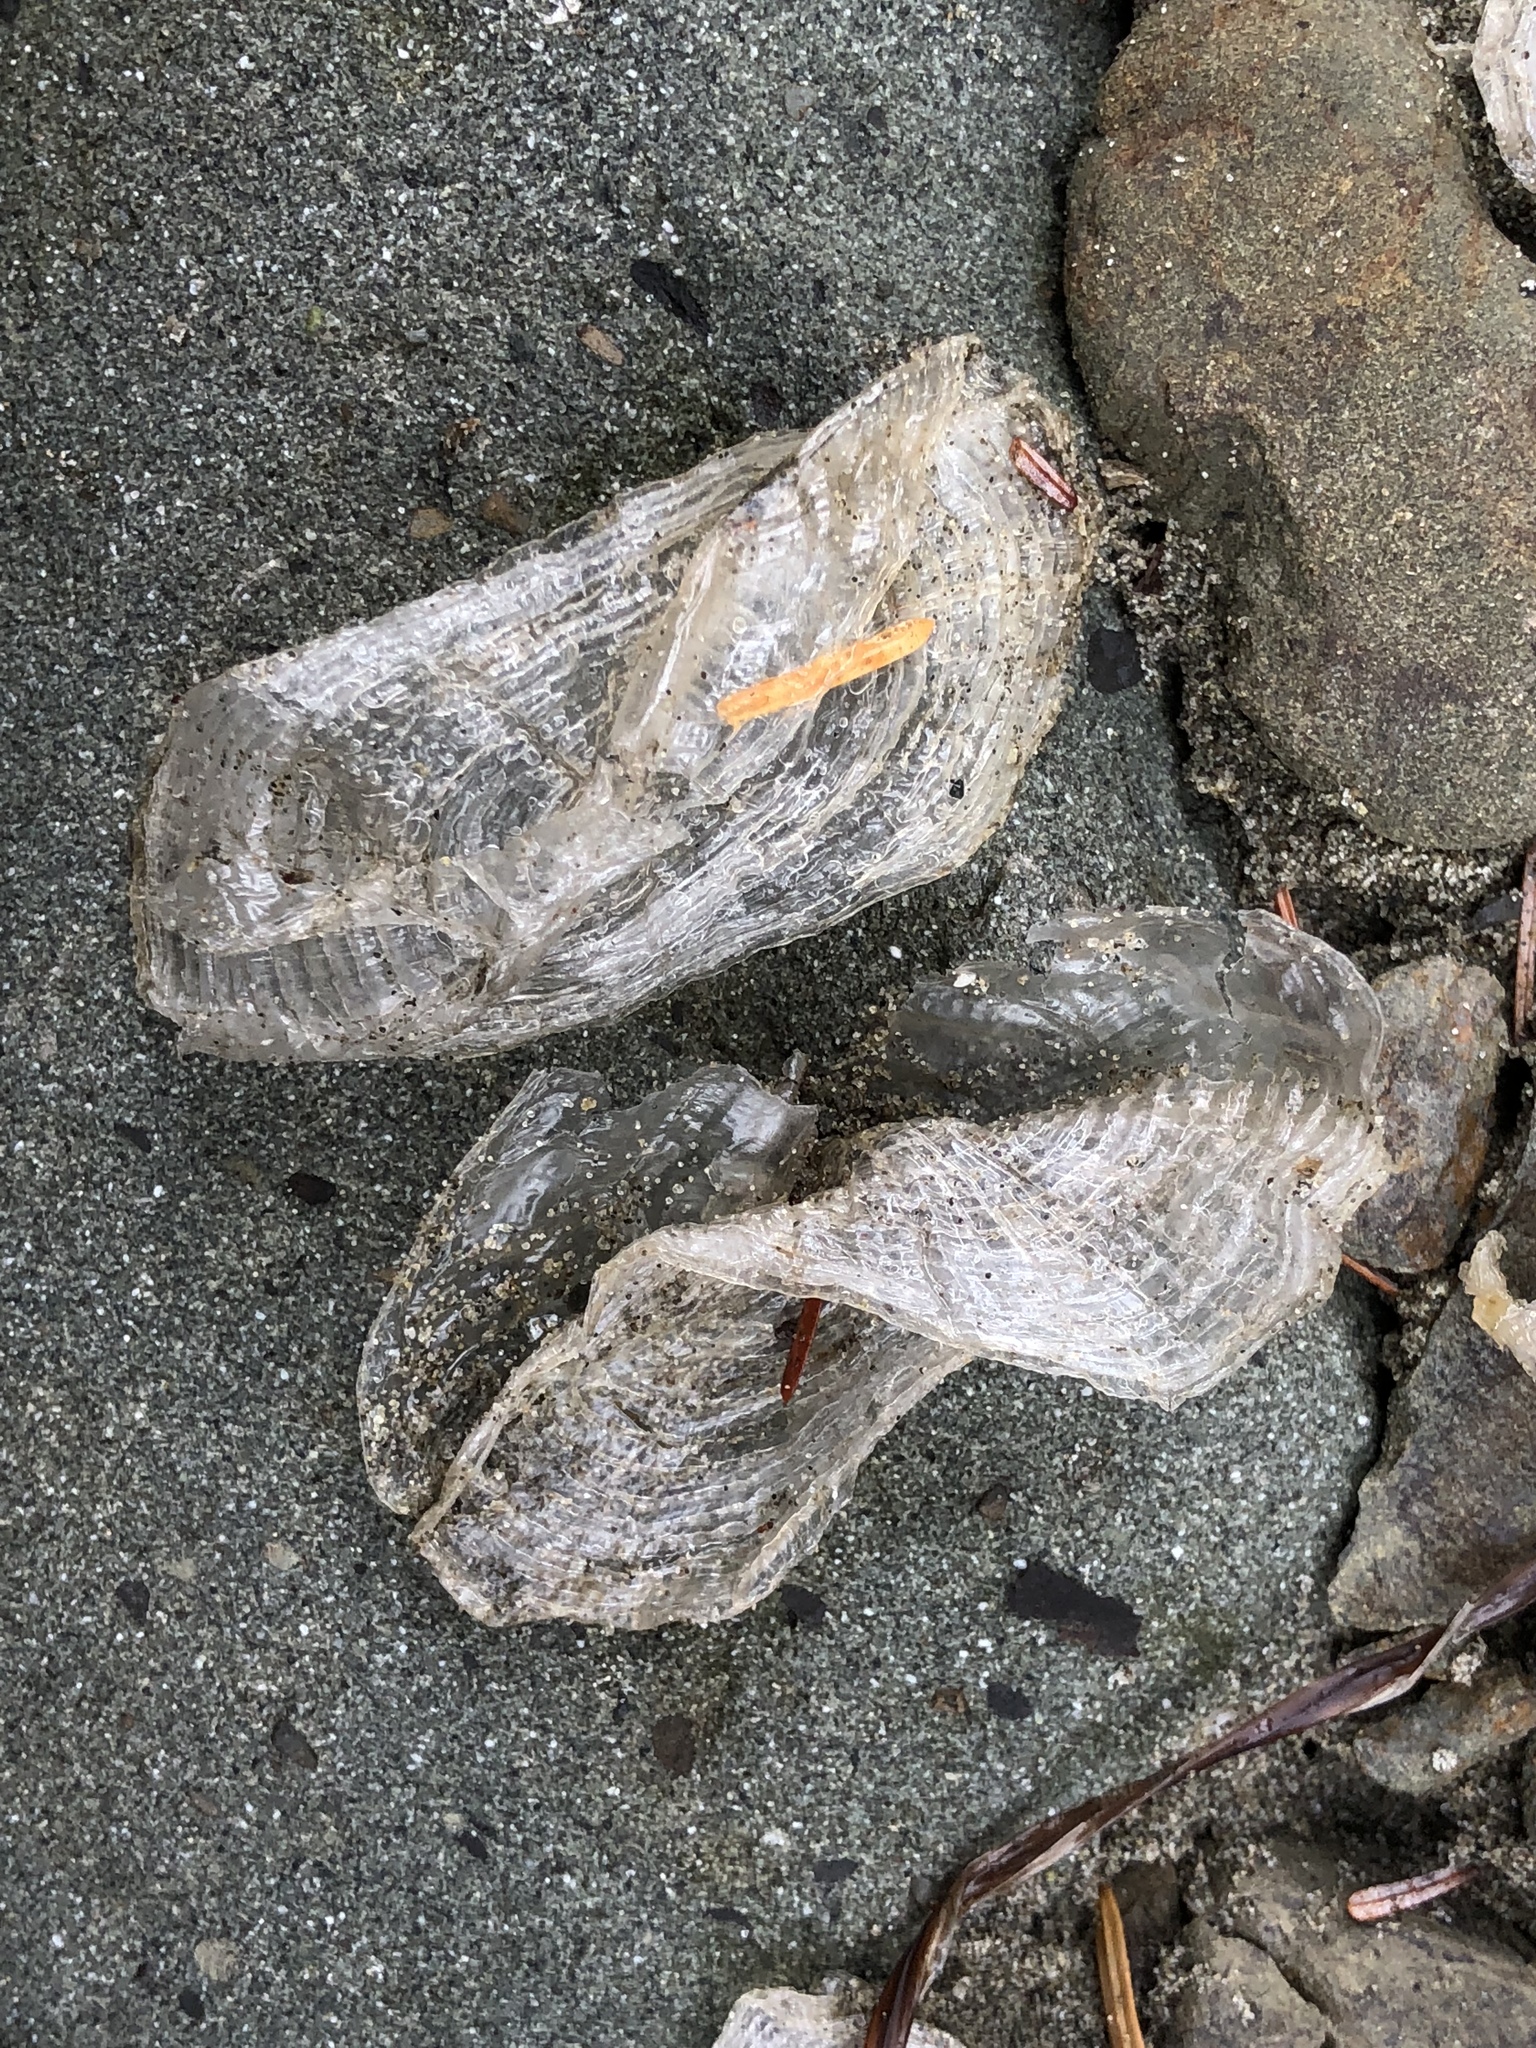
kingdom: Animalia
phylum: Cnidaria
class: Hydrozoa
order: Anthoathecata
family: Porpitidae
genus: Velella
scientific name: Velella velella
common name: By-the-wind-sailor
